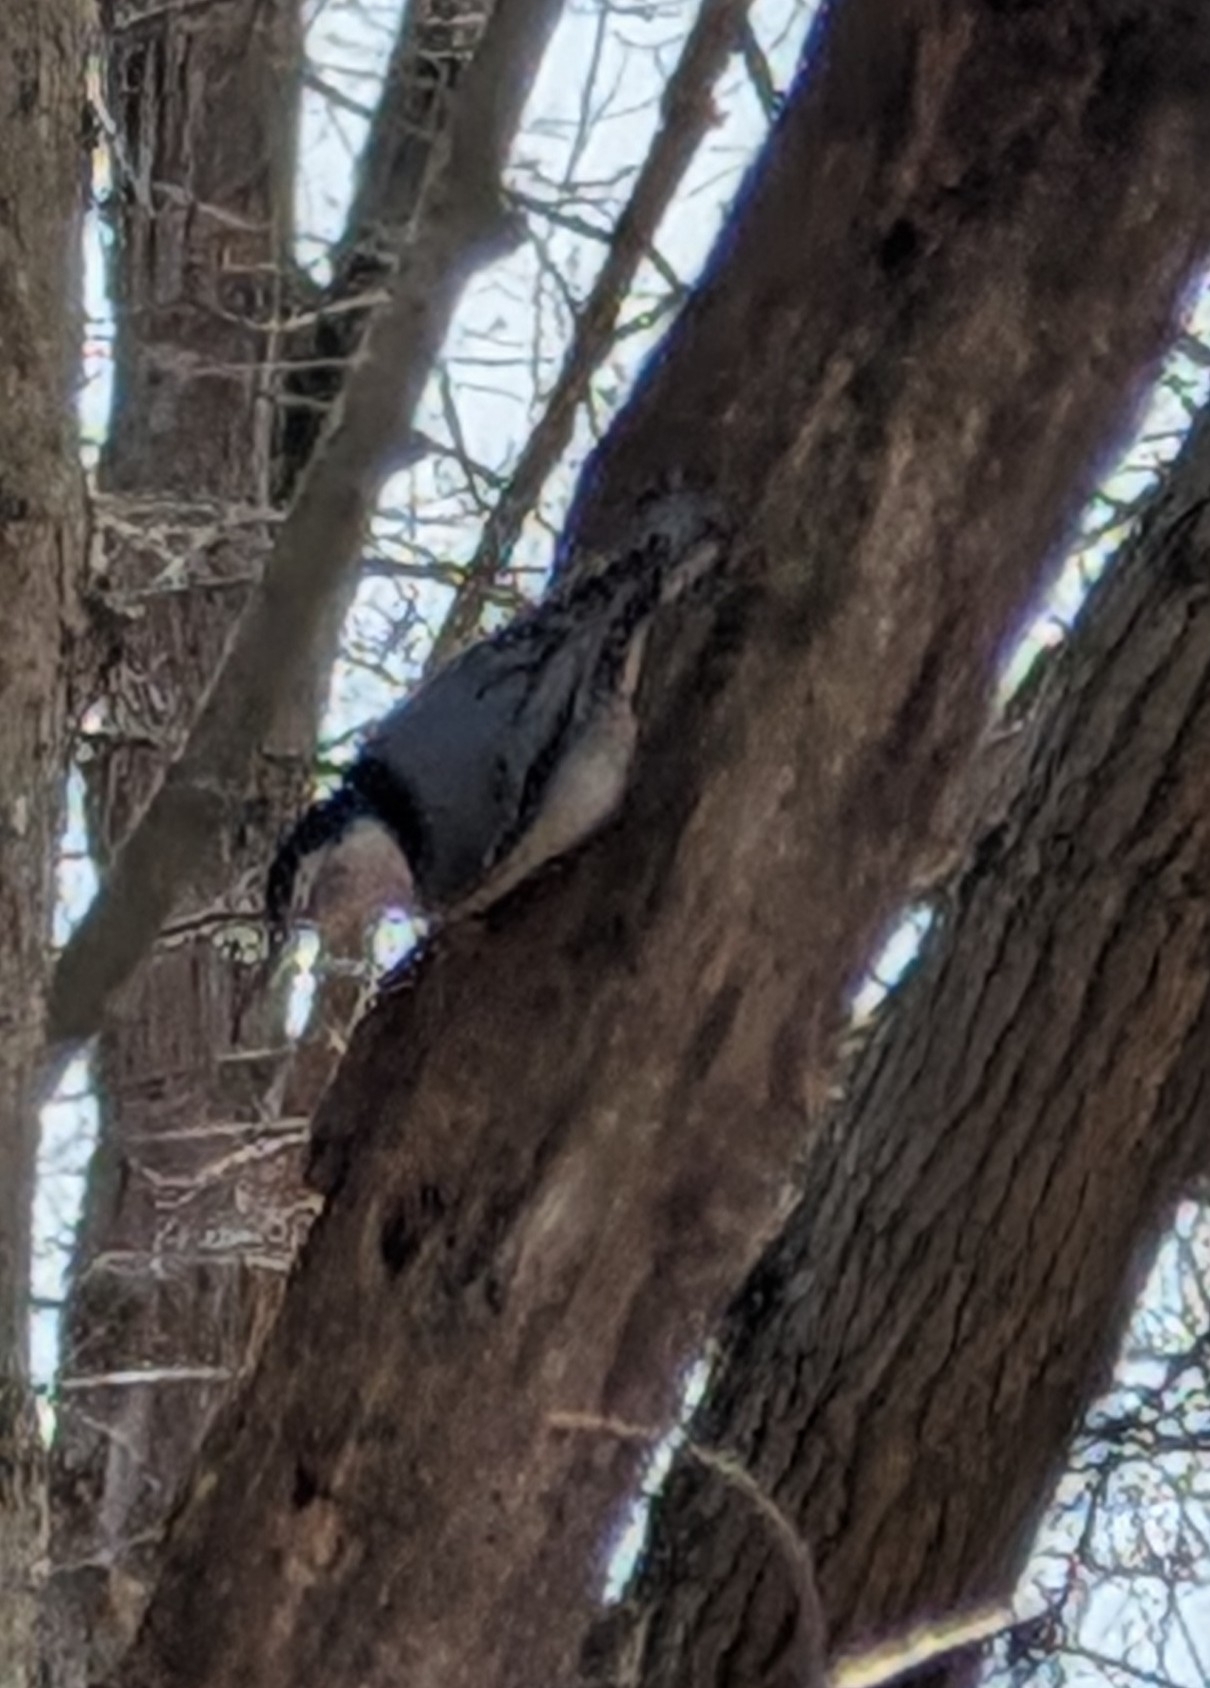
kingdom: Animalia
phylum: Chordata
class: Aves
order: Passeriformes
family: Sittidae
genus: Sitta
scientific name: Sitta carolinensis
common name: White-breasted nuthatch
